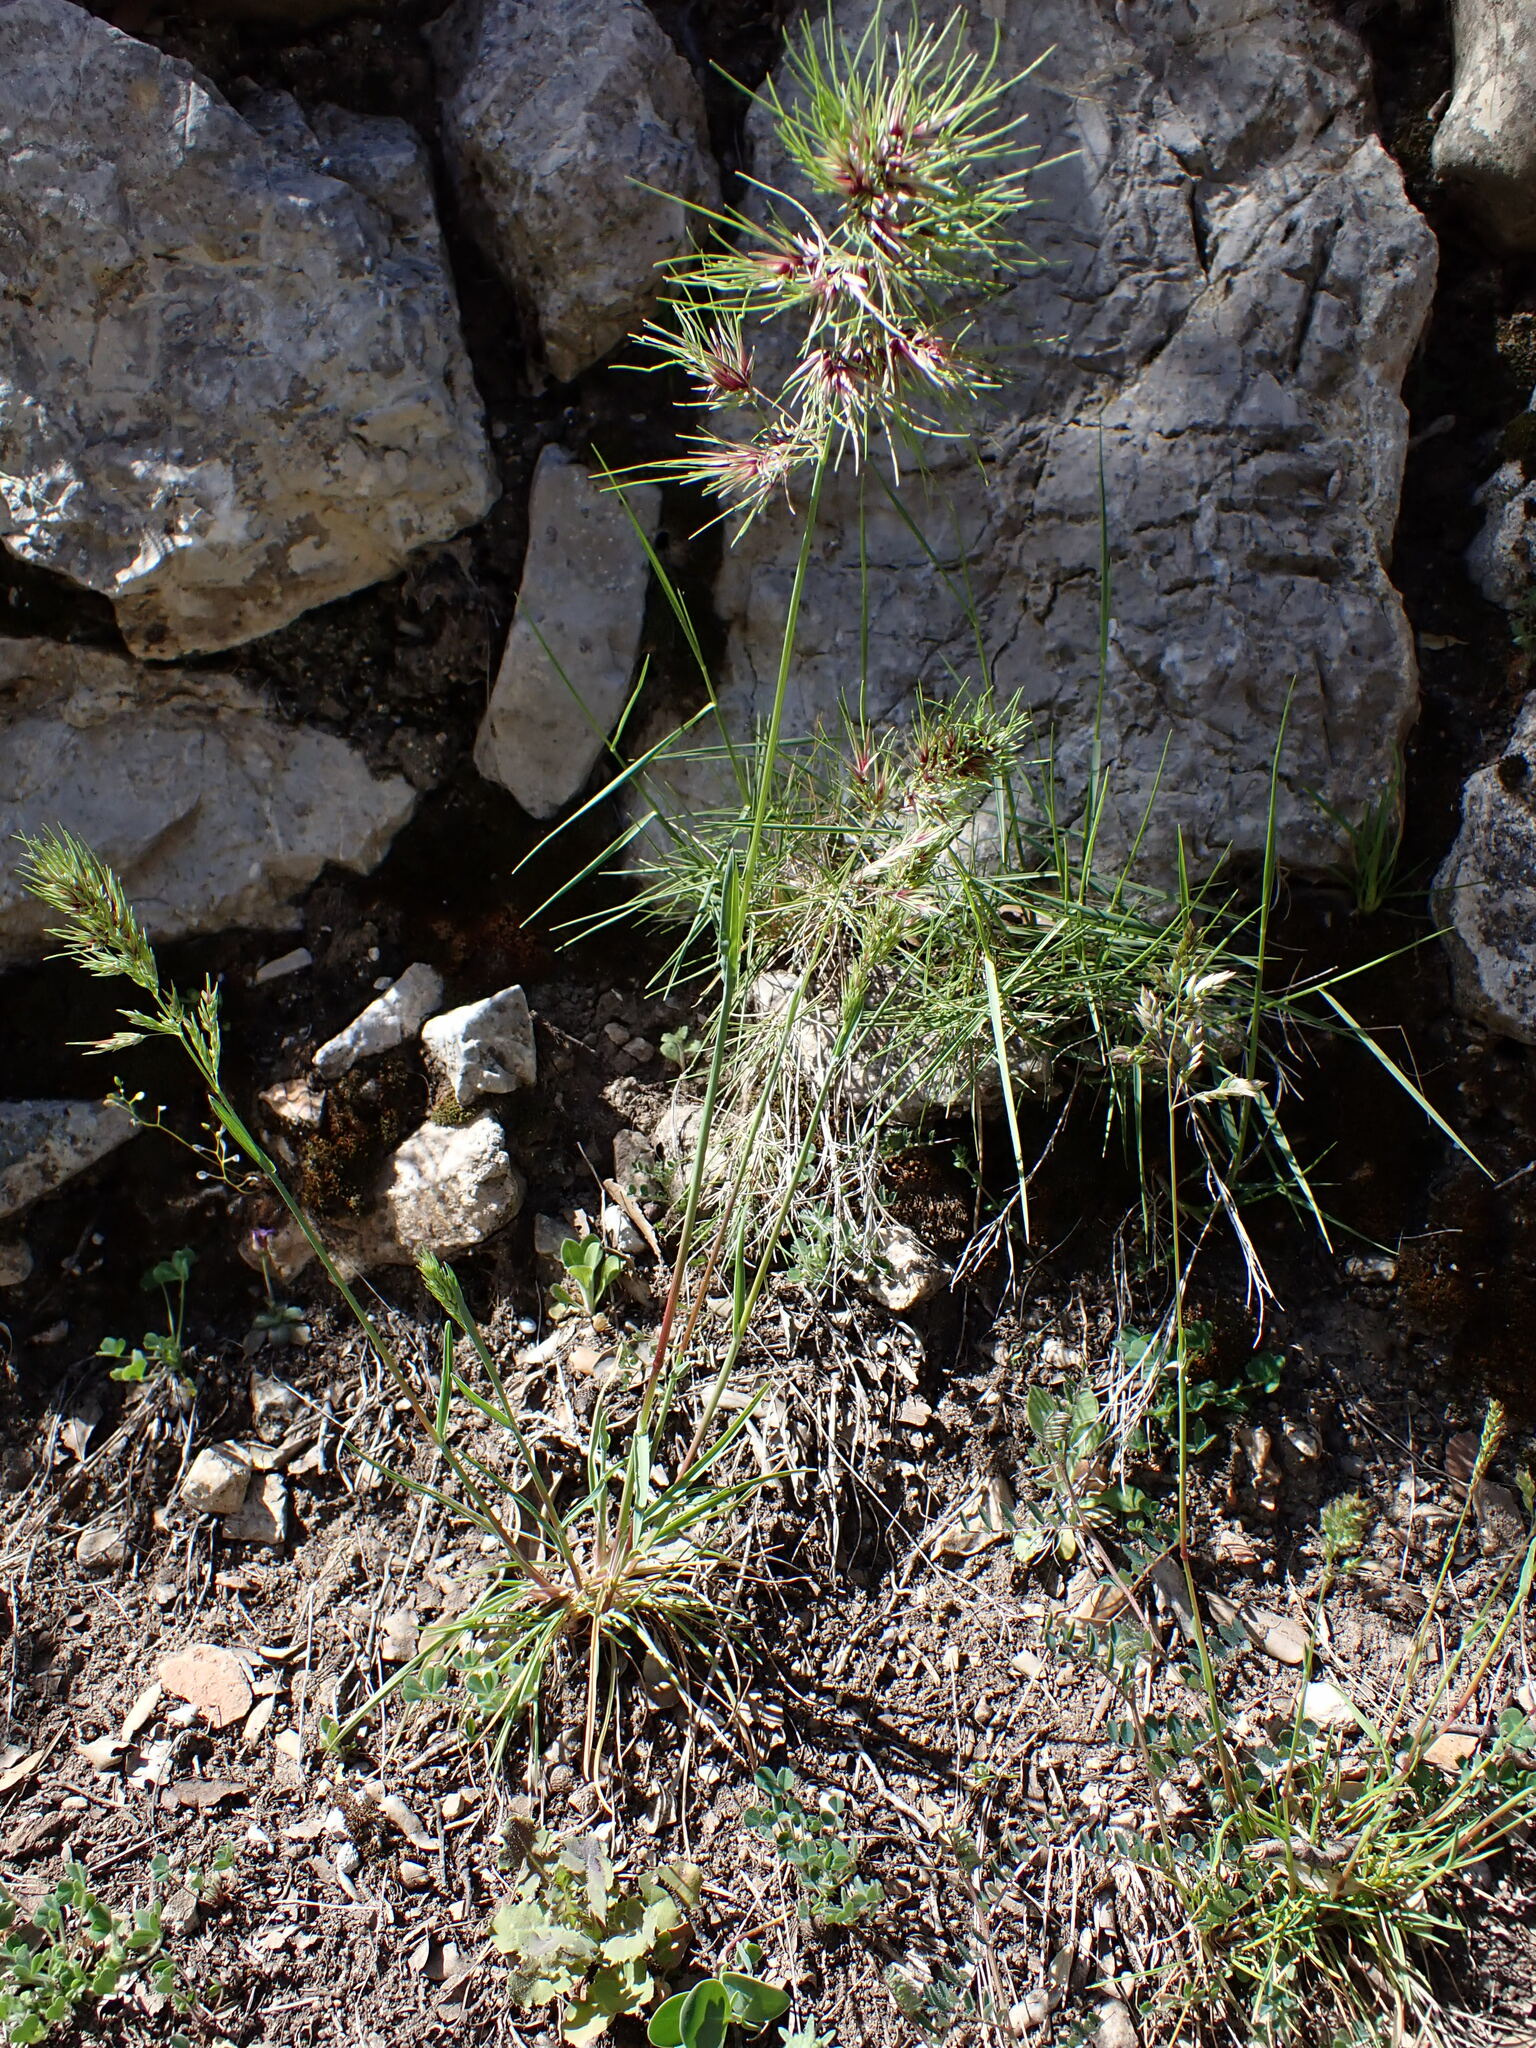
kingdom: Plantae
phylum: Tracheophyta
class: Liliopsida
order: Poales
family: Poaceae
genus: Poa
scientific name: Poa bulbosa
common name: Bulbous bluegrass
